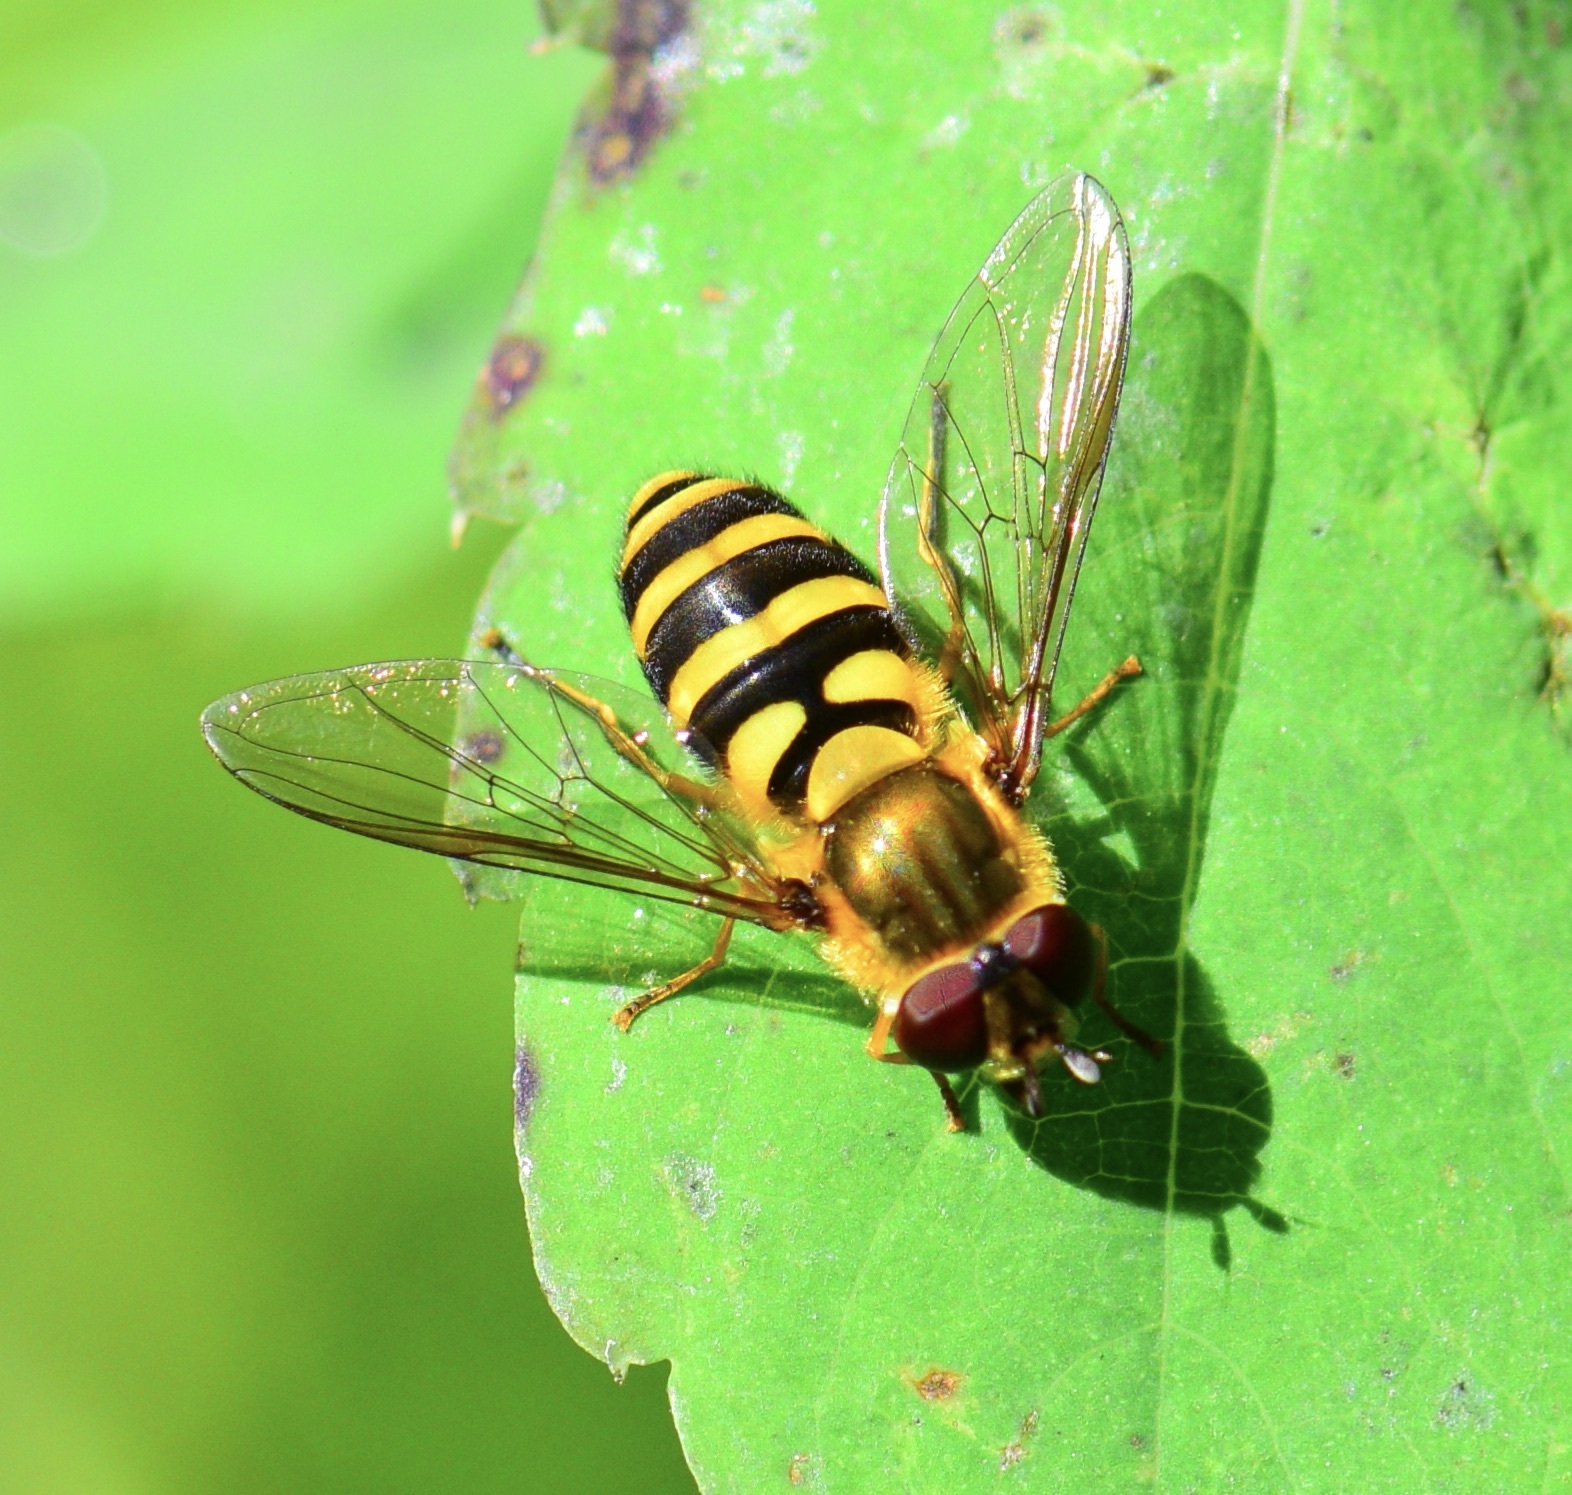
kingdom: Animalia
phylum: Arthropoda
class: Insecta
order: Diptera
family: Syrphidae
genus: Syrphus
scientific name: Syrphus
